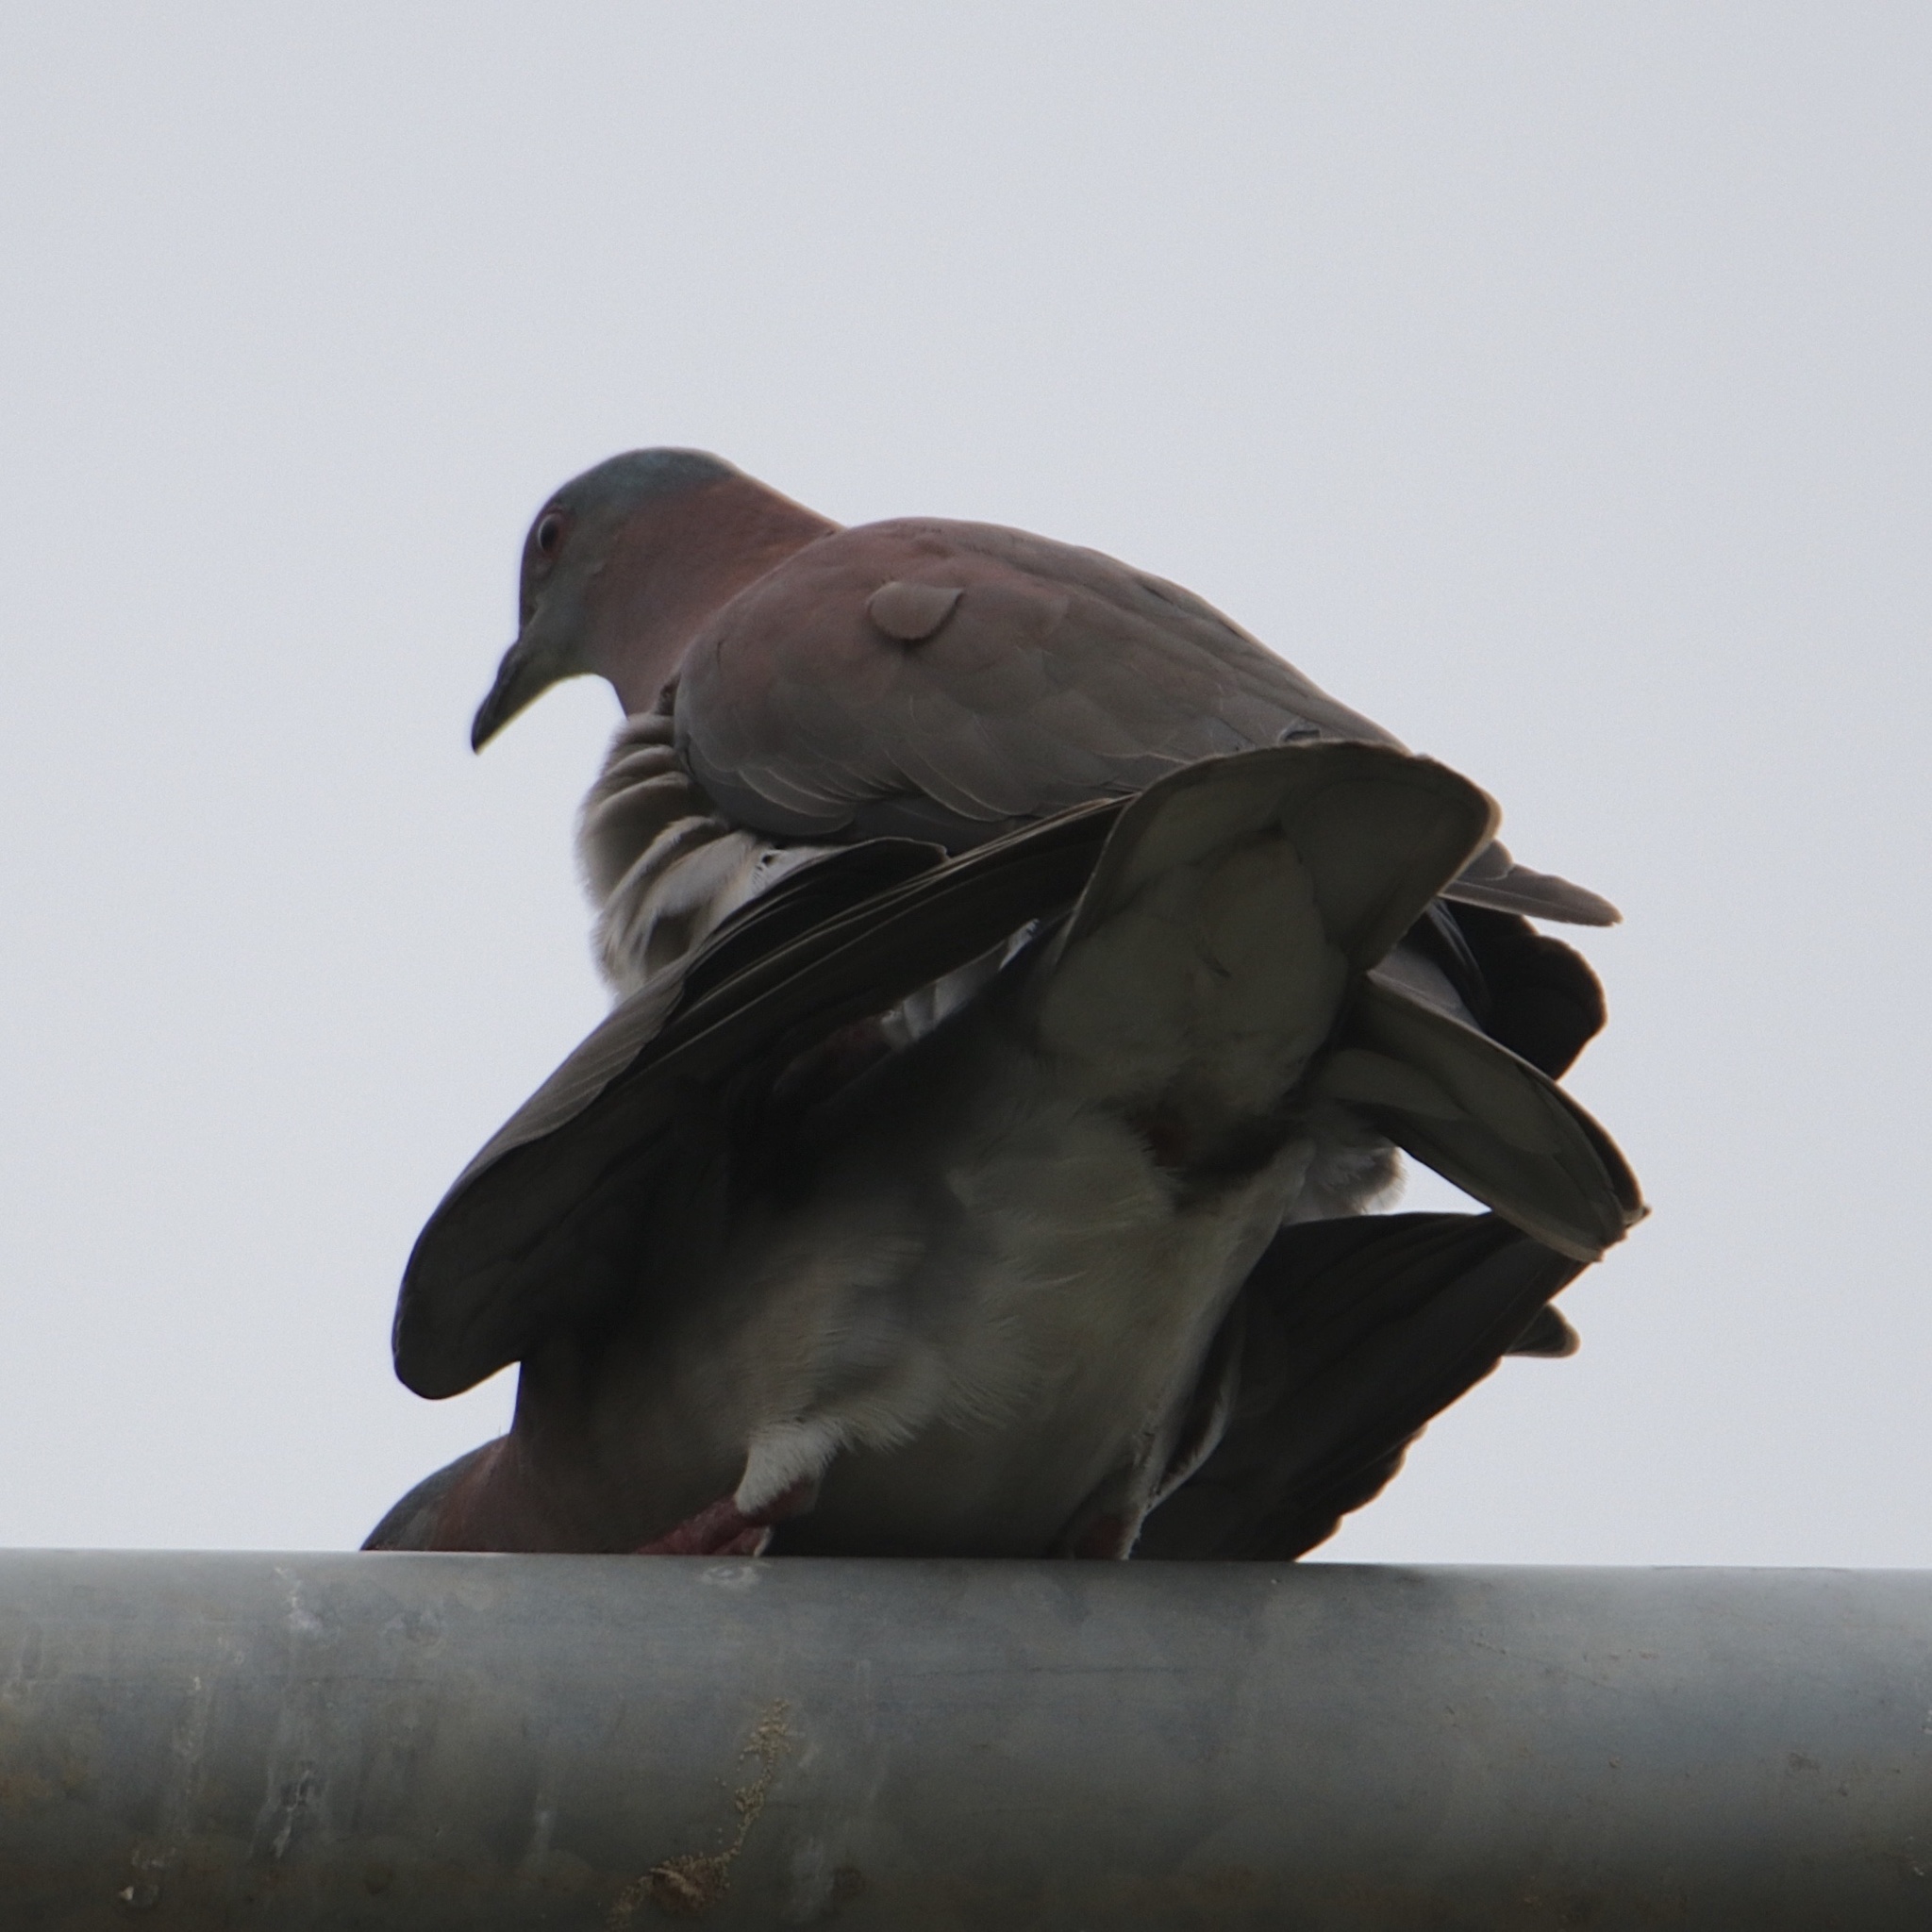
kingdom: Animalia
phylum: Chordata
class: Aves
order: Columbiformes
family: Columbidae
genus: Patagioenas
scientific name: Patagioenas cayennensis
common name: Pale-vented pigeon
